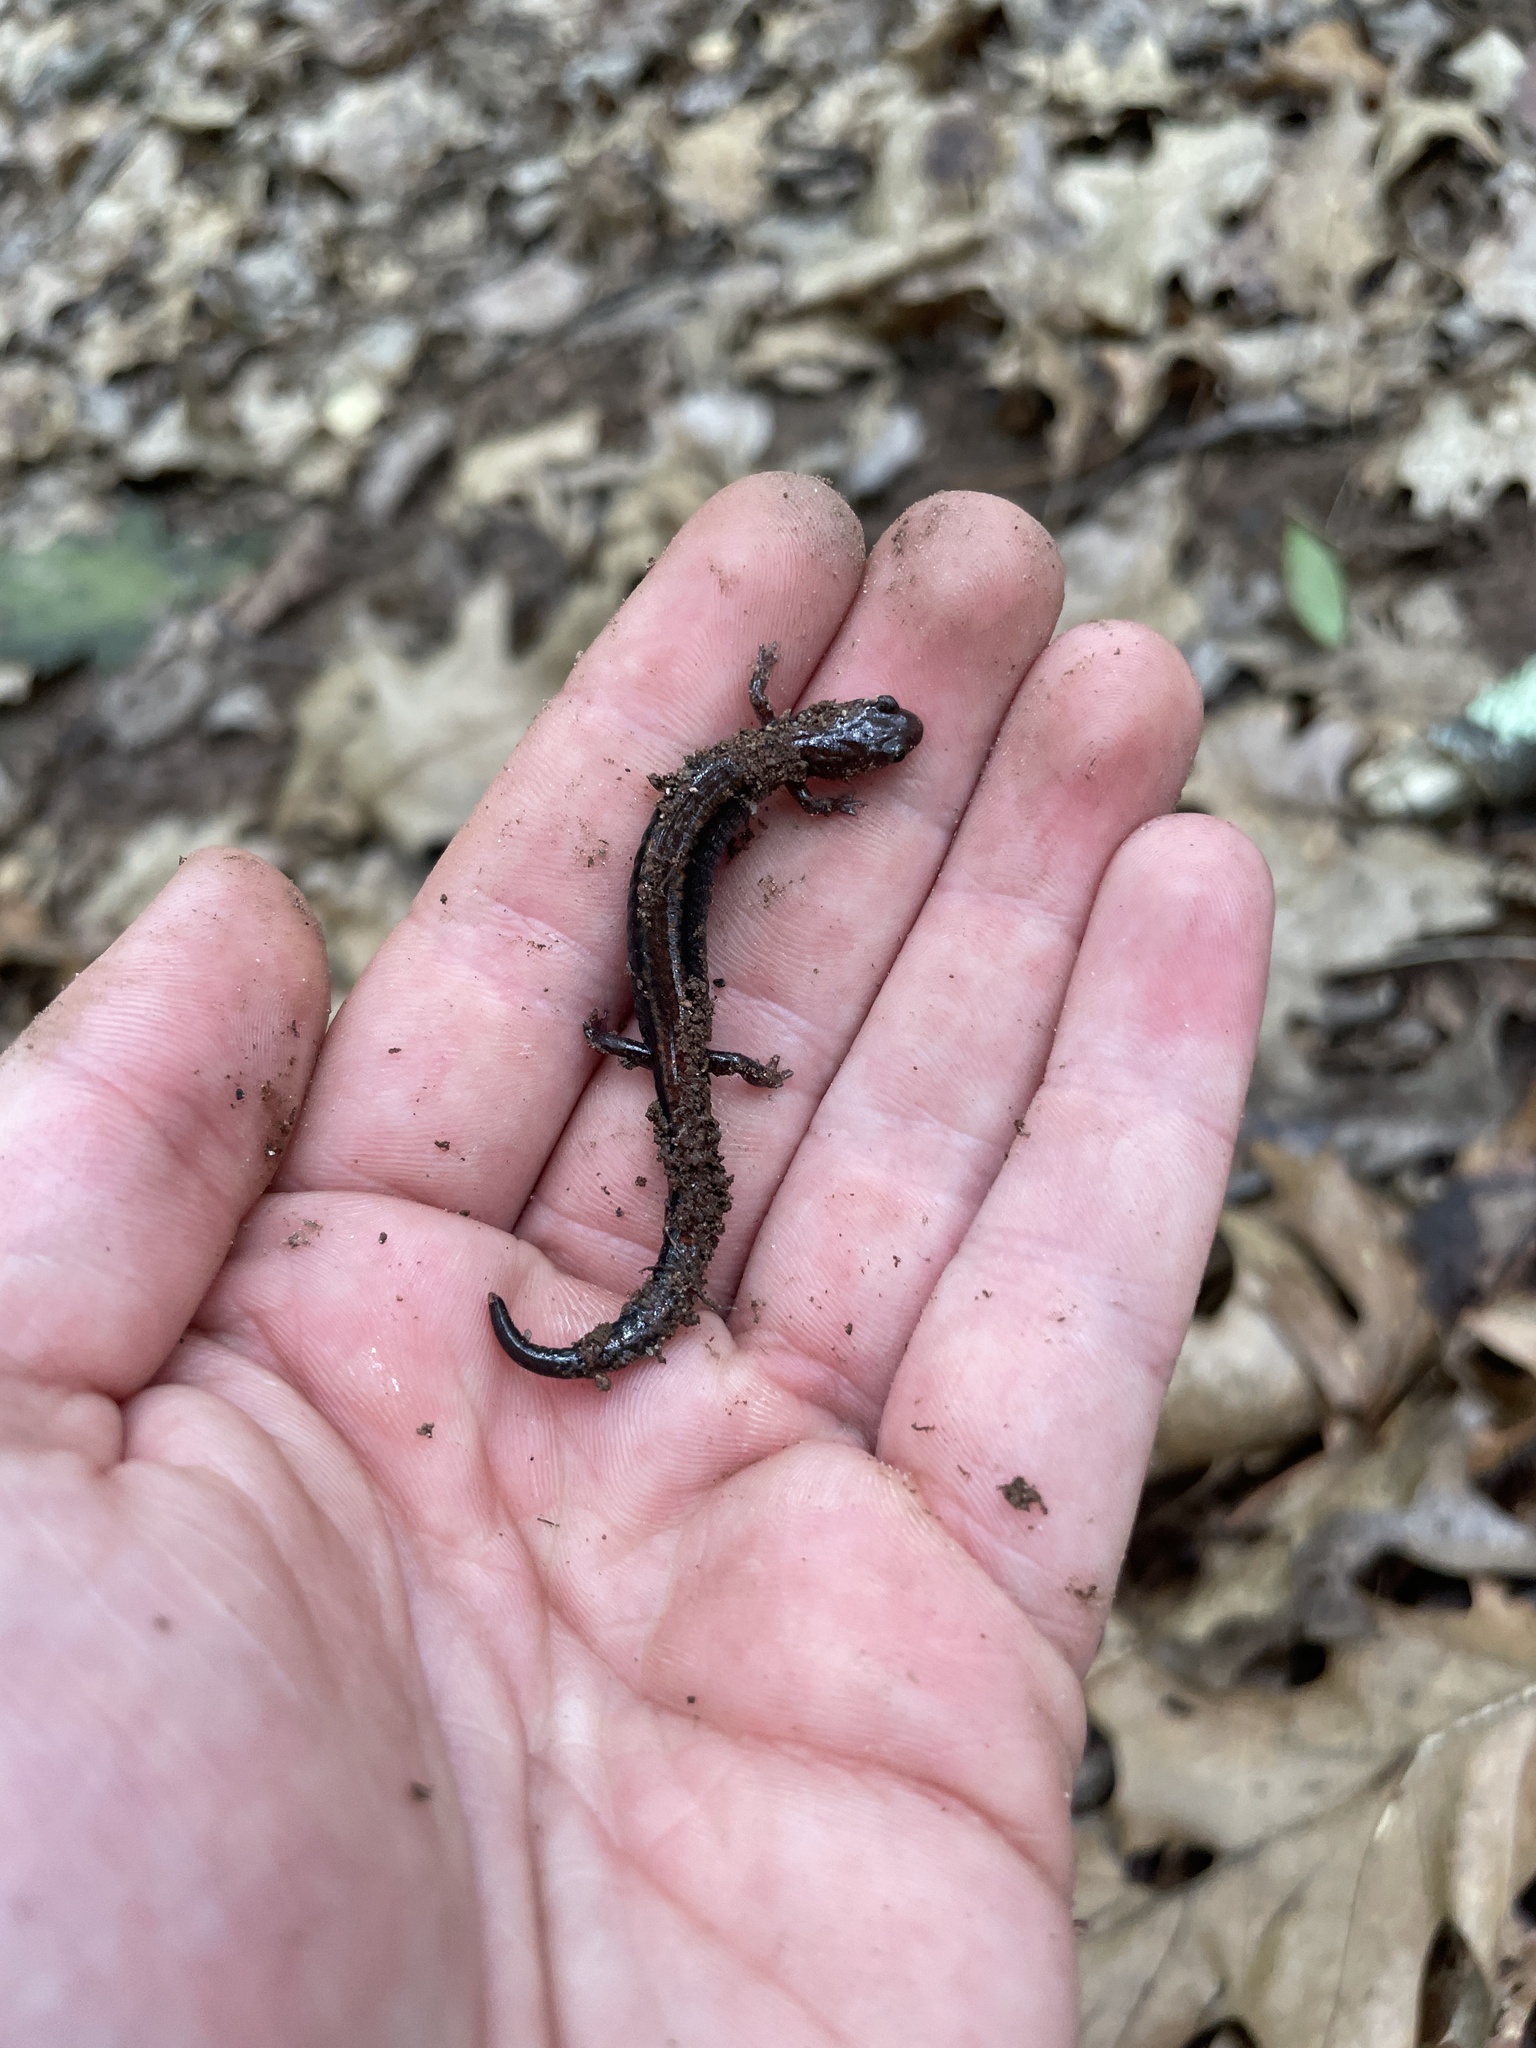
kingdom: Animalia
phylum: Chordata
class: Amphibia
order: Caudata
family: Plethodontidae
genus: Plethodon
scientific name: Plethodon cinereus
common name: Redback salamander
